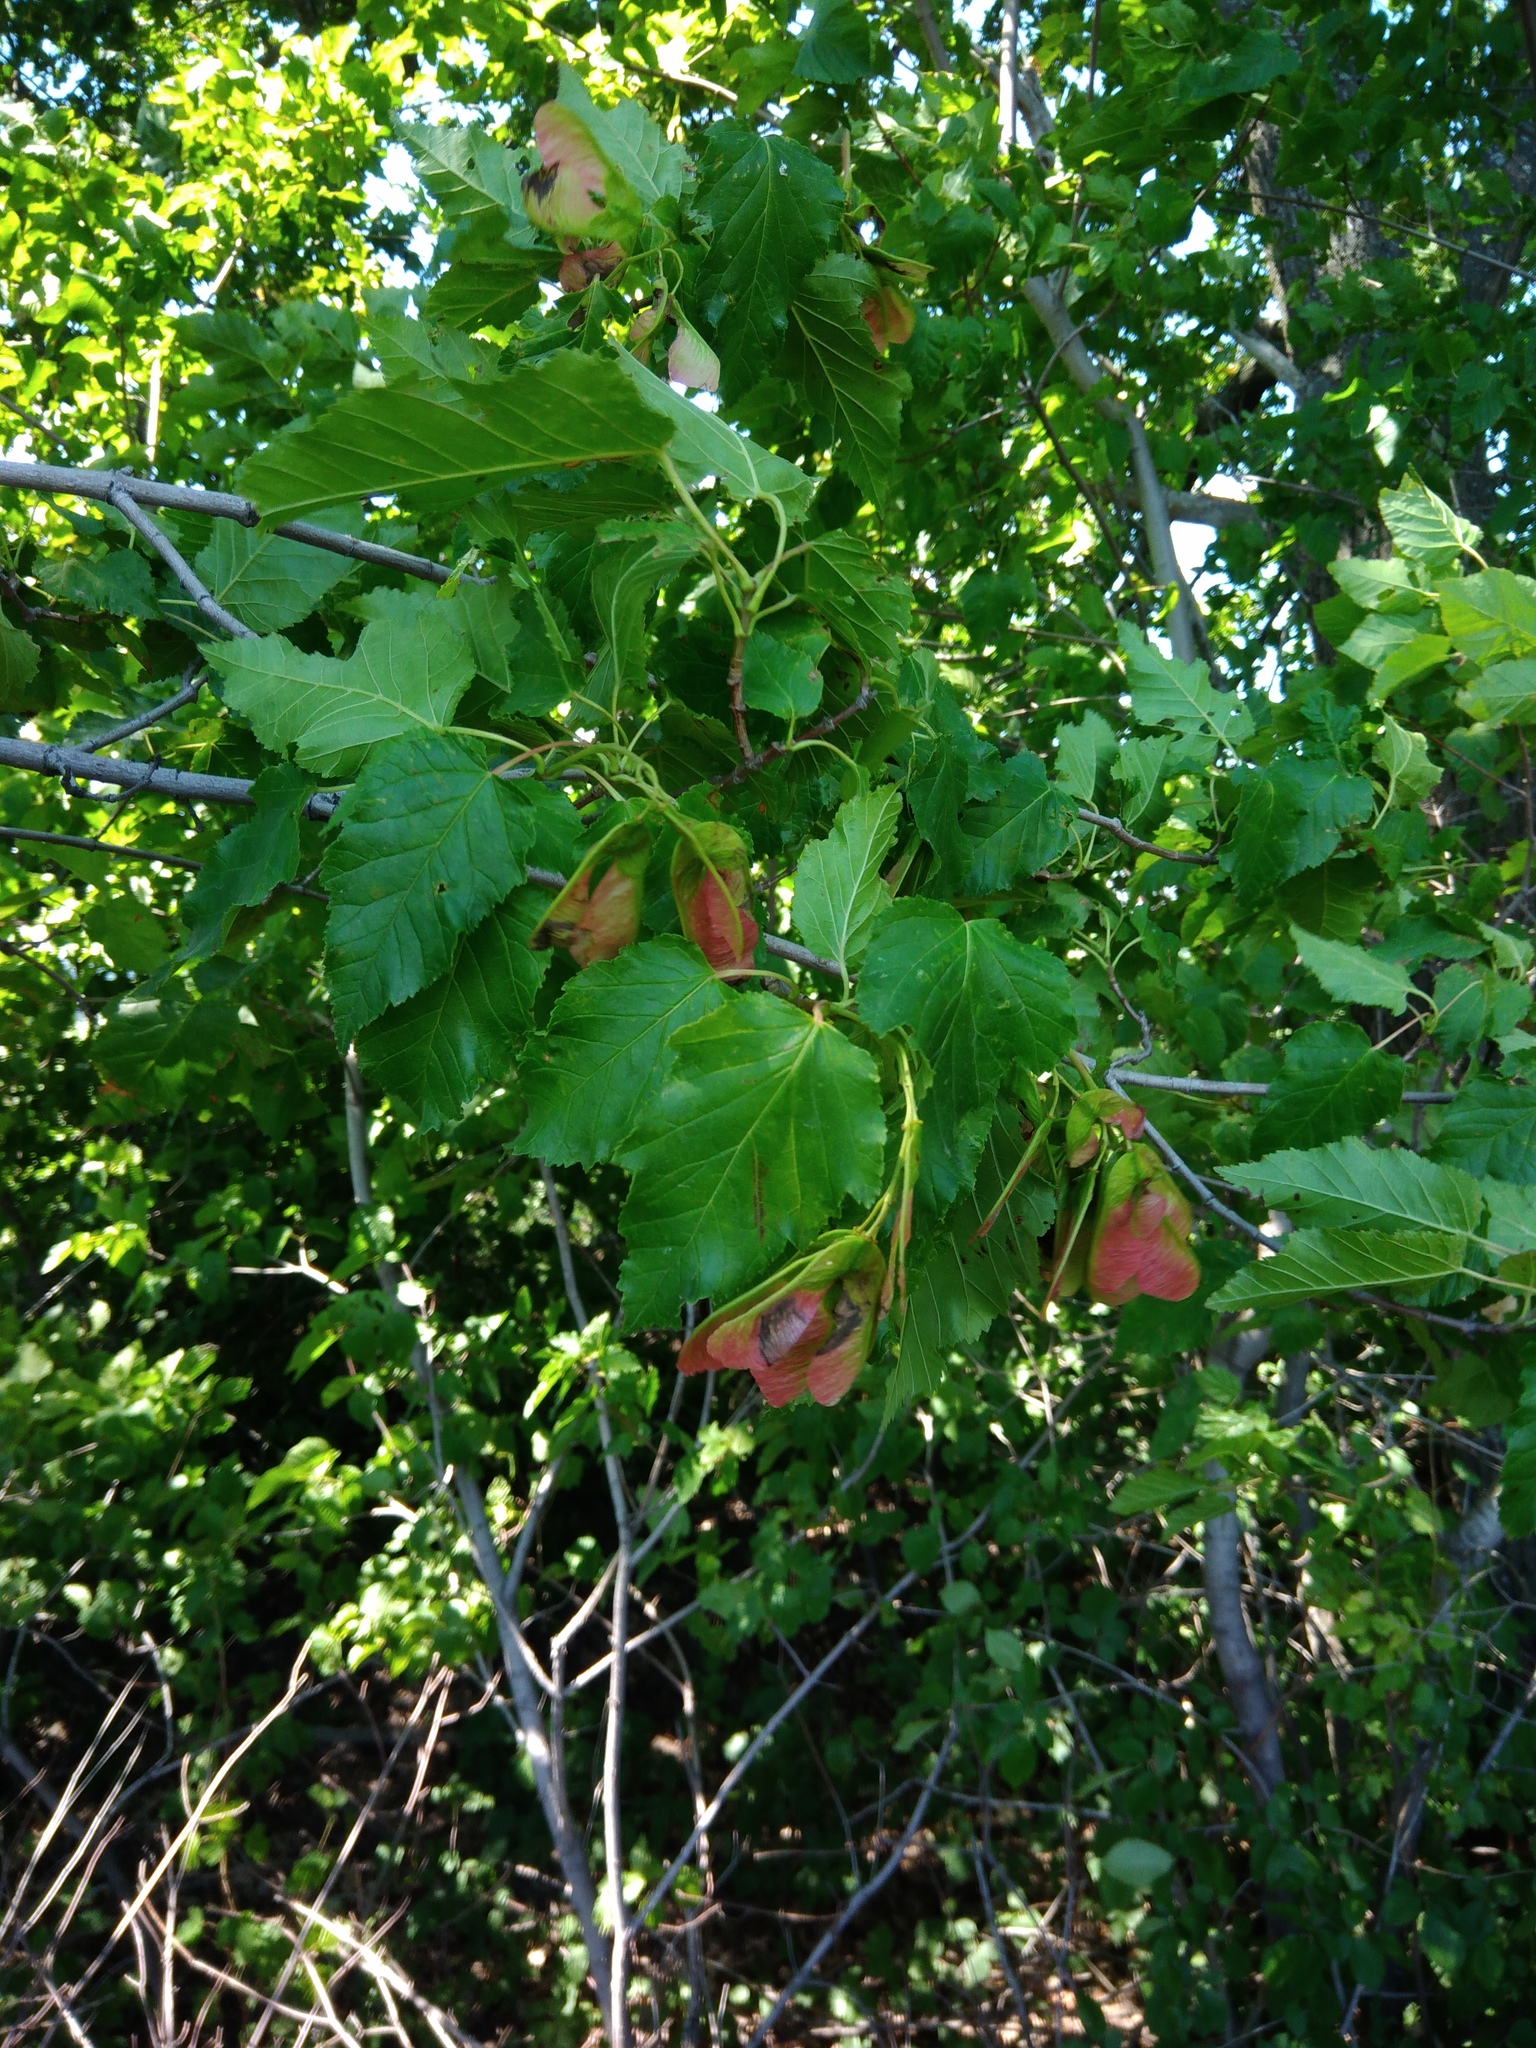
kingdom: Plantae
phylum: Tracheophyta
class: Magnoliopsida
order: Sapindales
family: Sapindaceae
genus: Acer
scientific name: Acer tataricum
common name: Tartar maple
